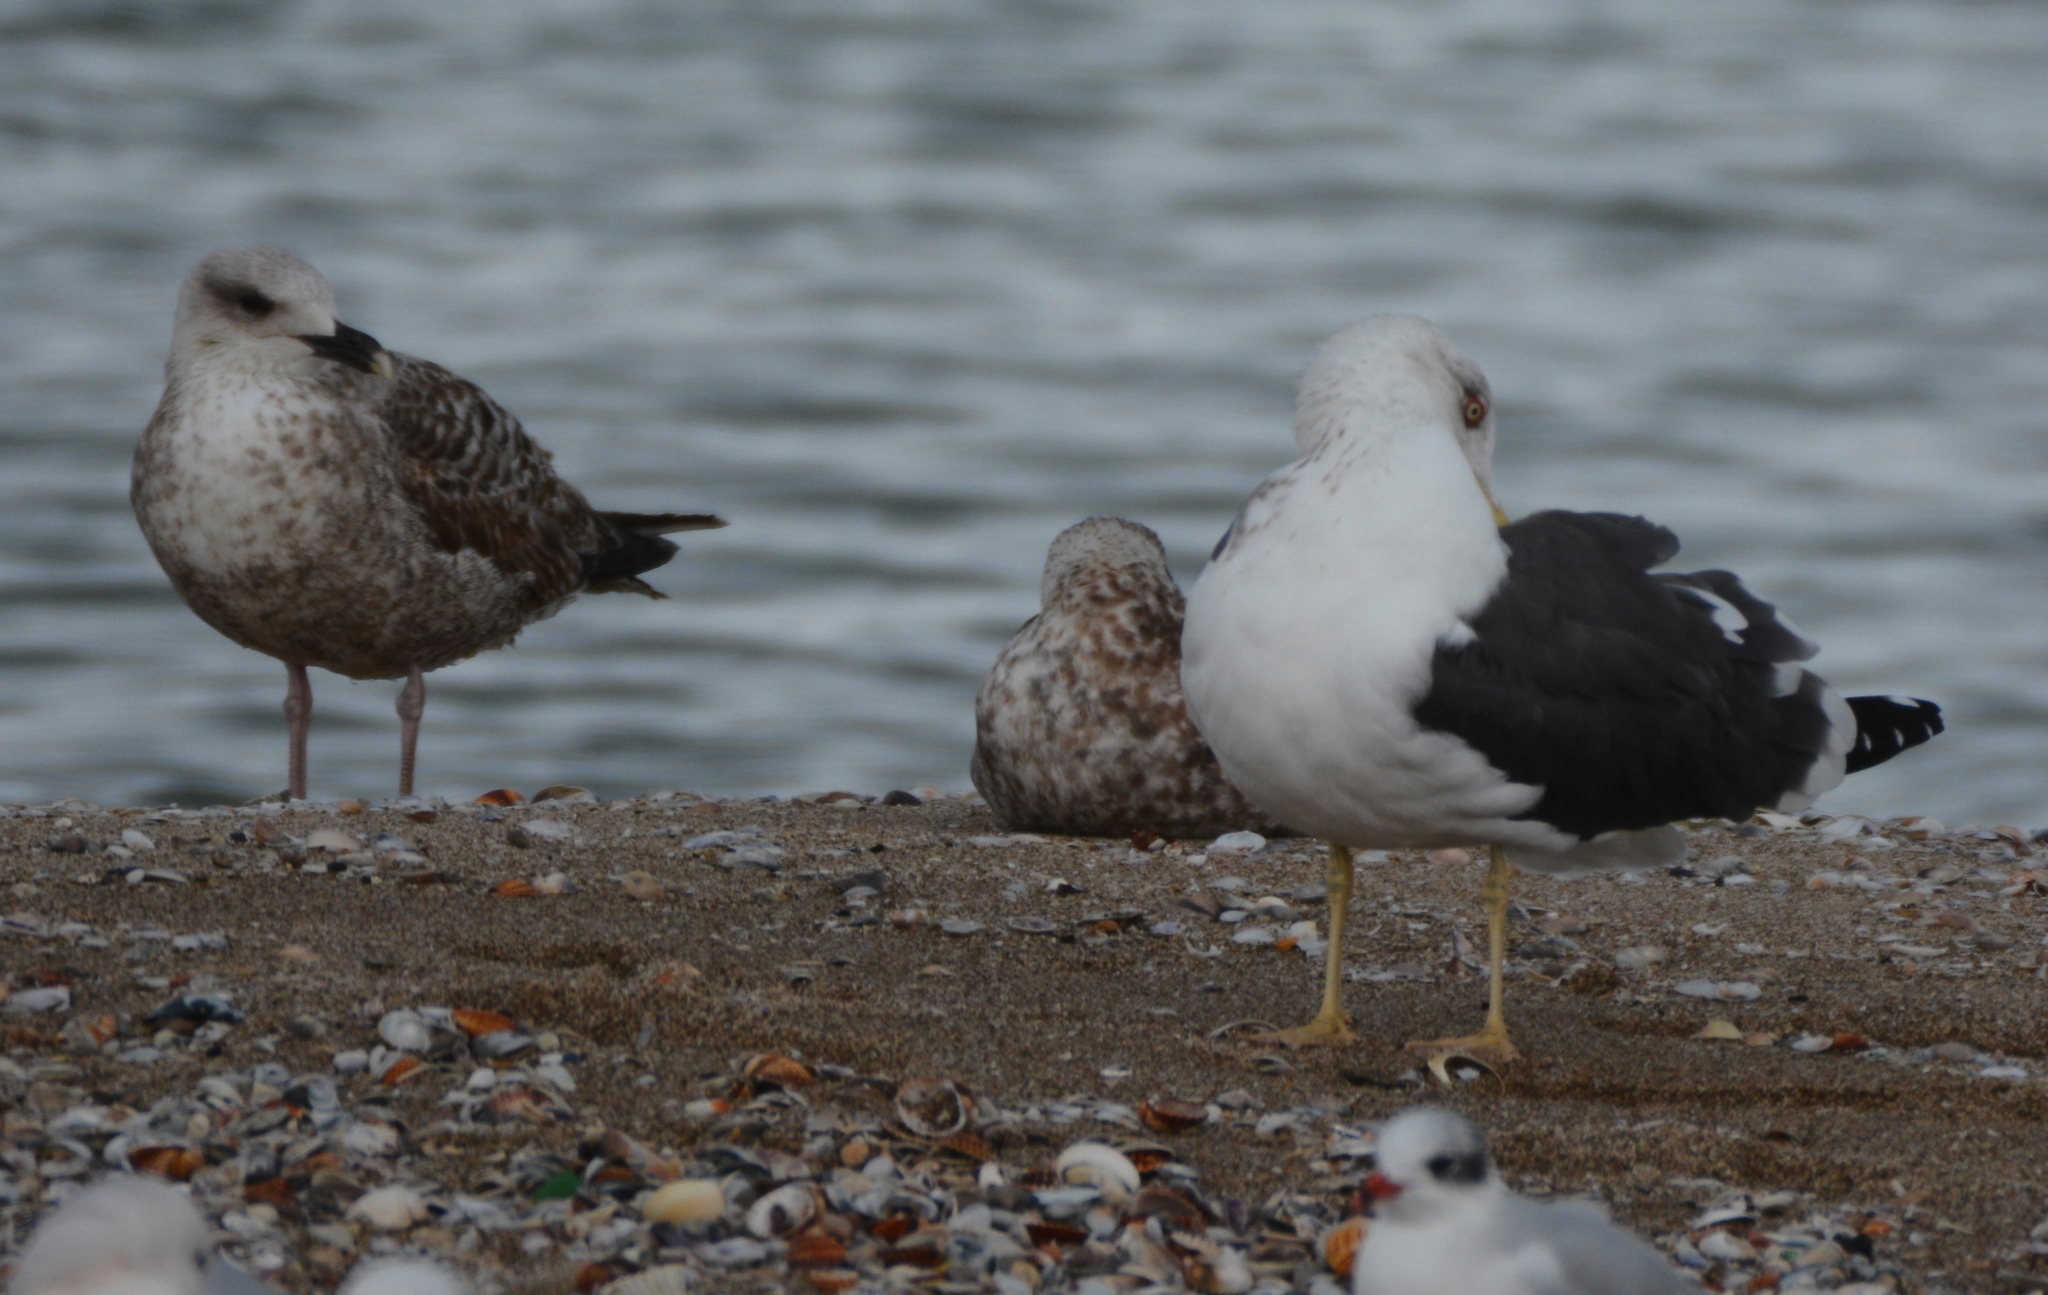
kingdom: Animalia
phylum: Chordata
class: Aves
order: Charadriiformes
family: Laridae
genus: Larus
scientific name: Larus fuscus
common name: Lesser black-backed gull
